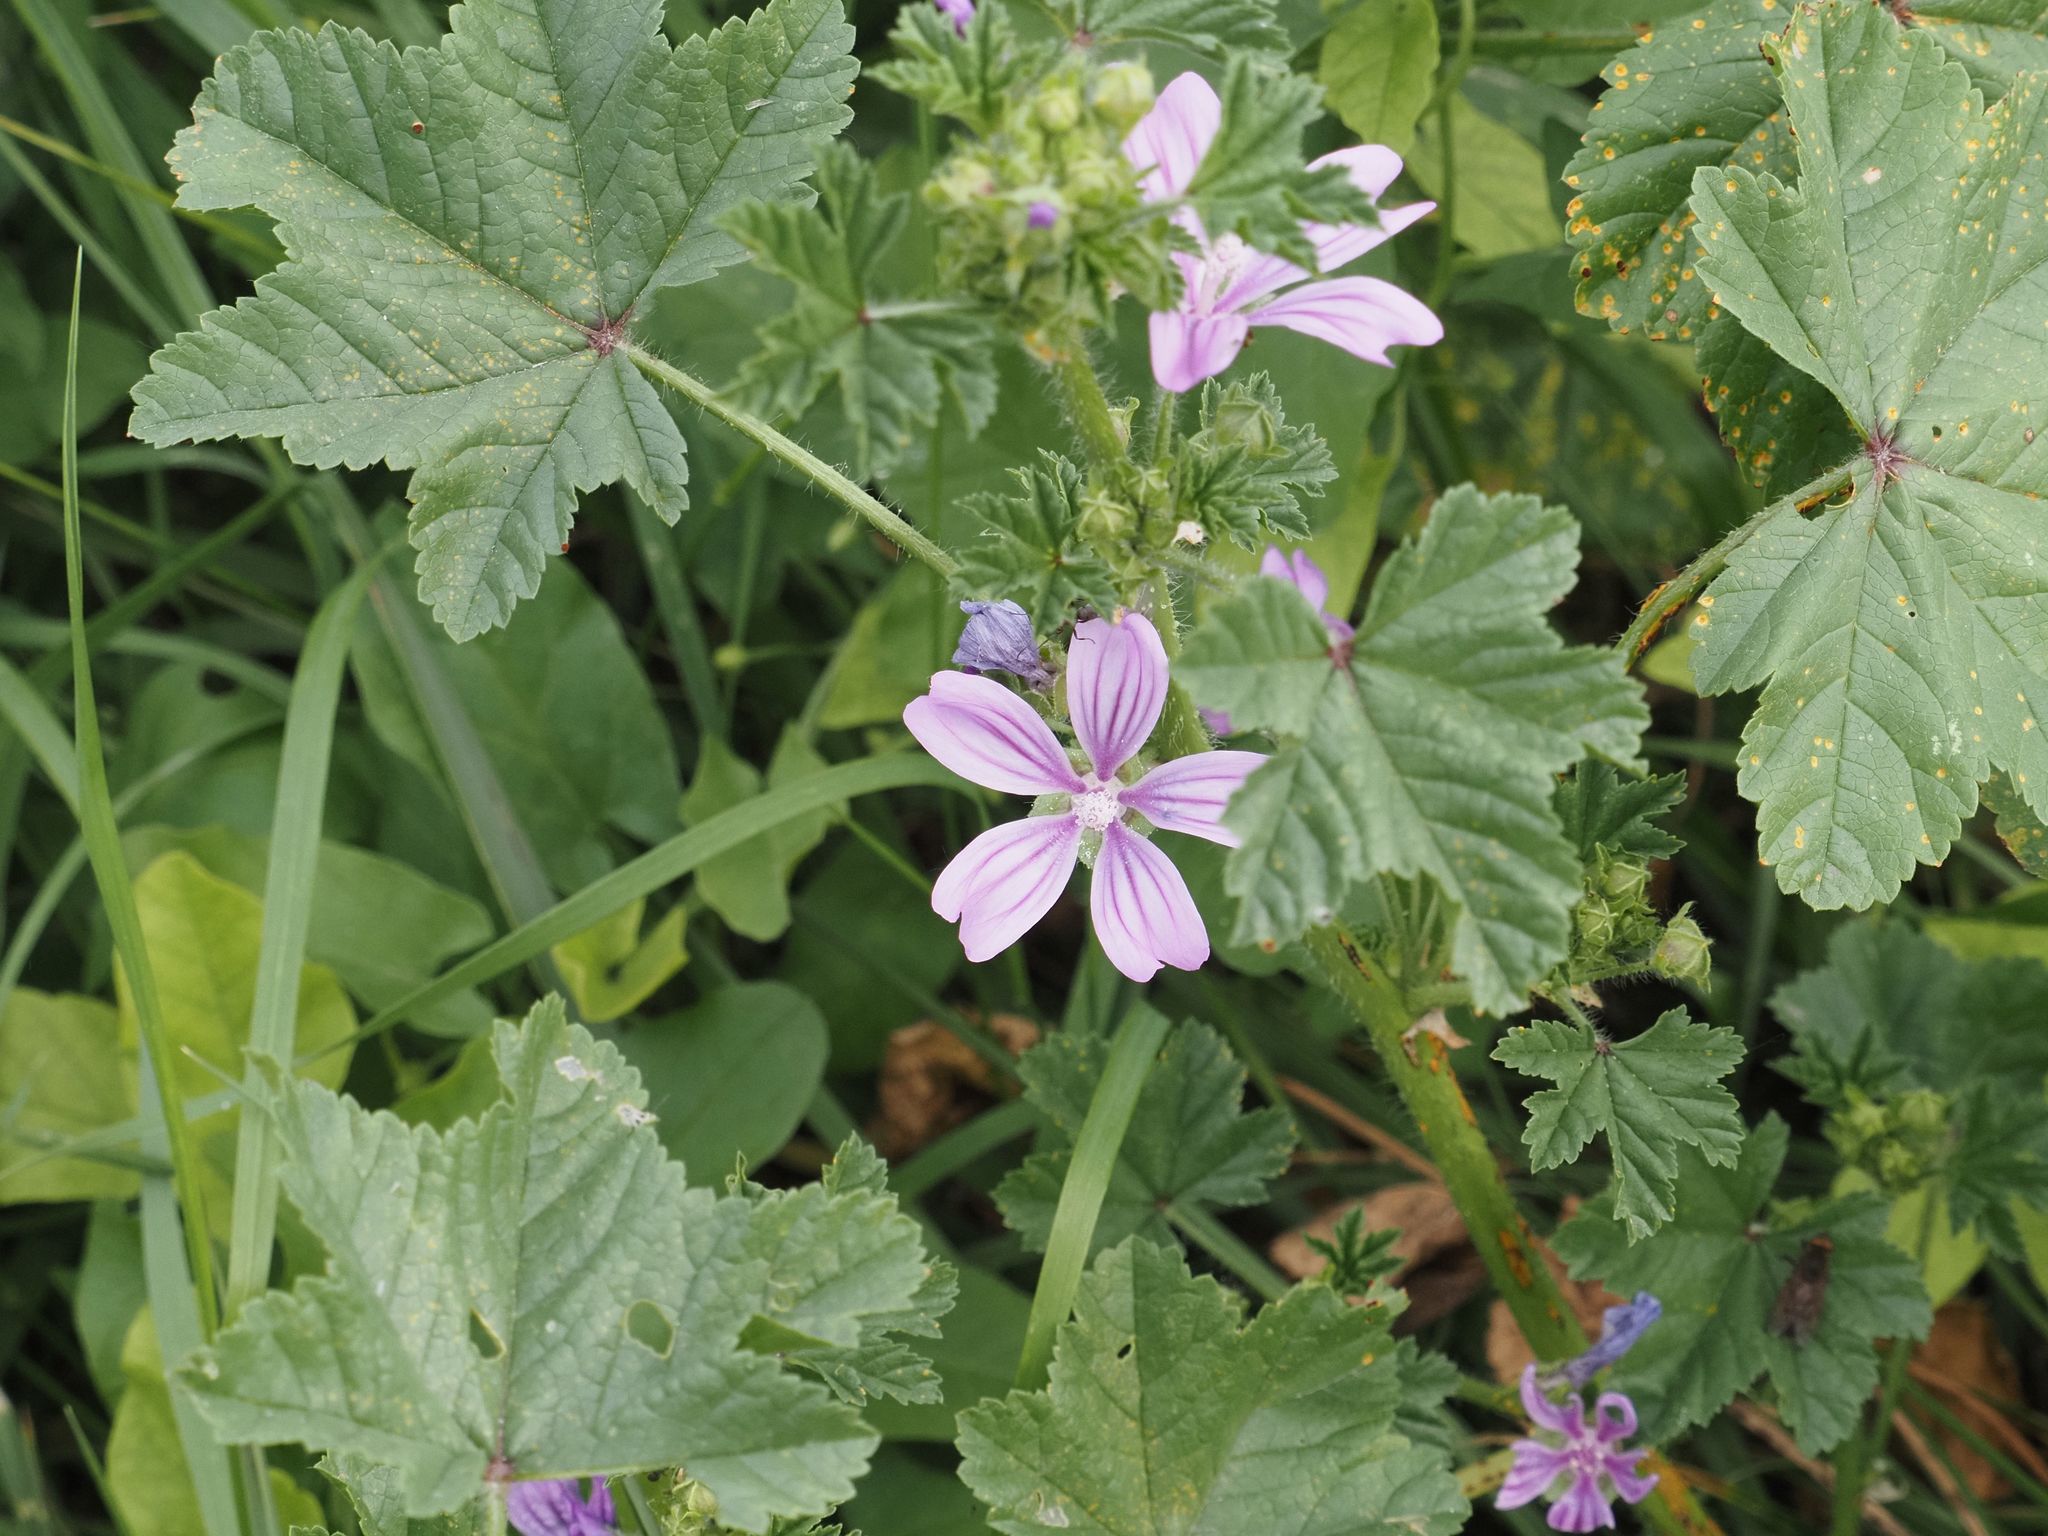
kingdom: Plantae
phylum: Tracheophyta
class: Magnoliopsida
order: Malvales
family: Malvaceae
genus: Malva
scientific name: Malva sylvestris
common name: Common mallow
